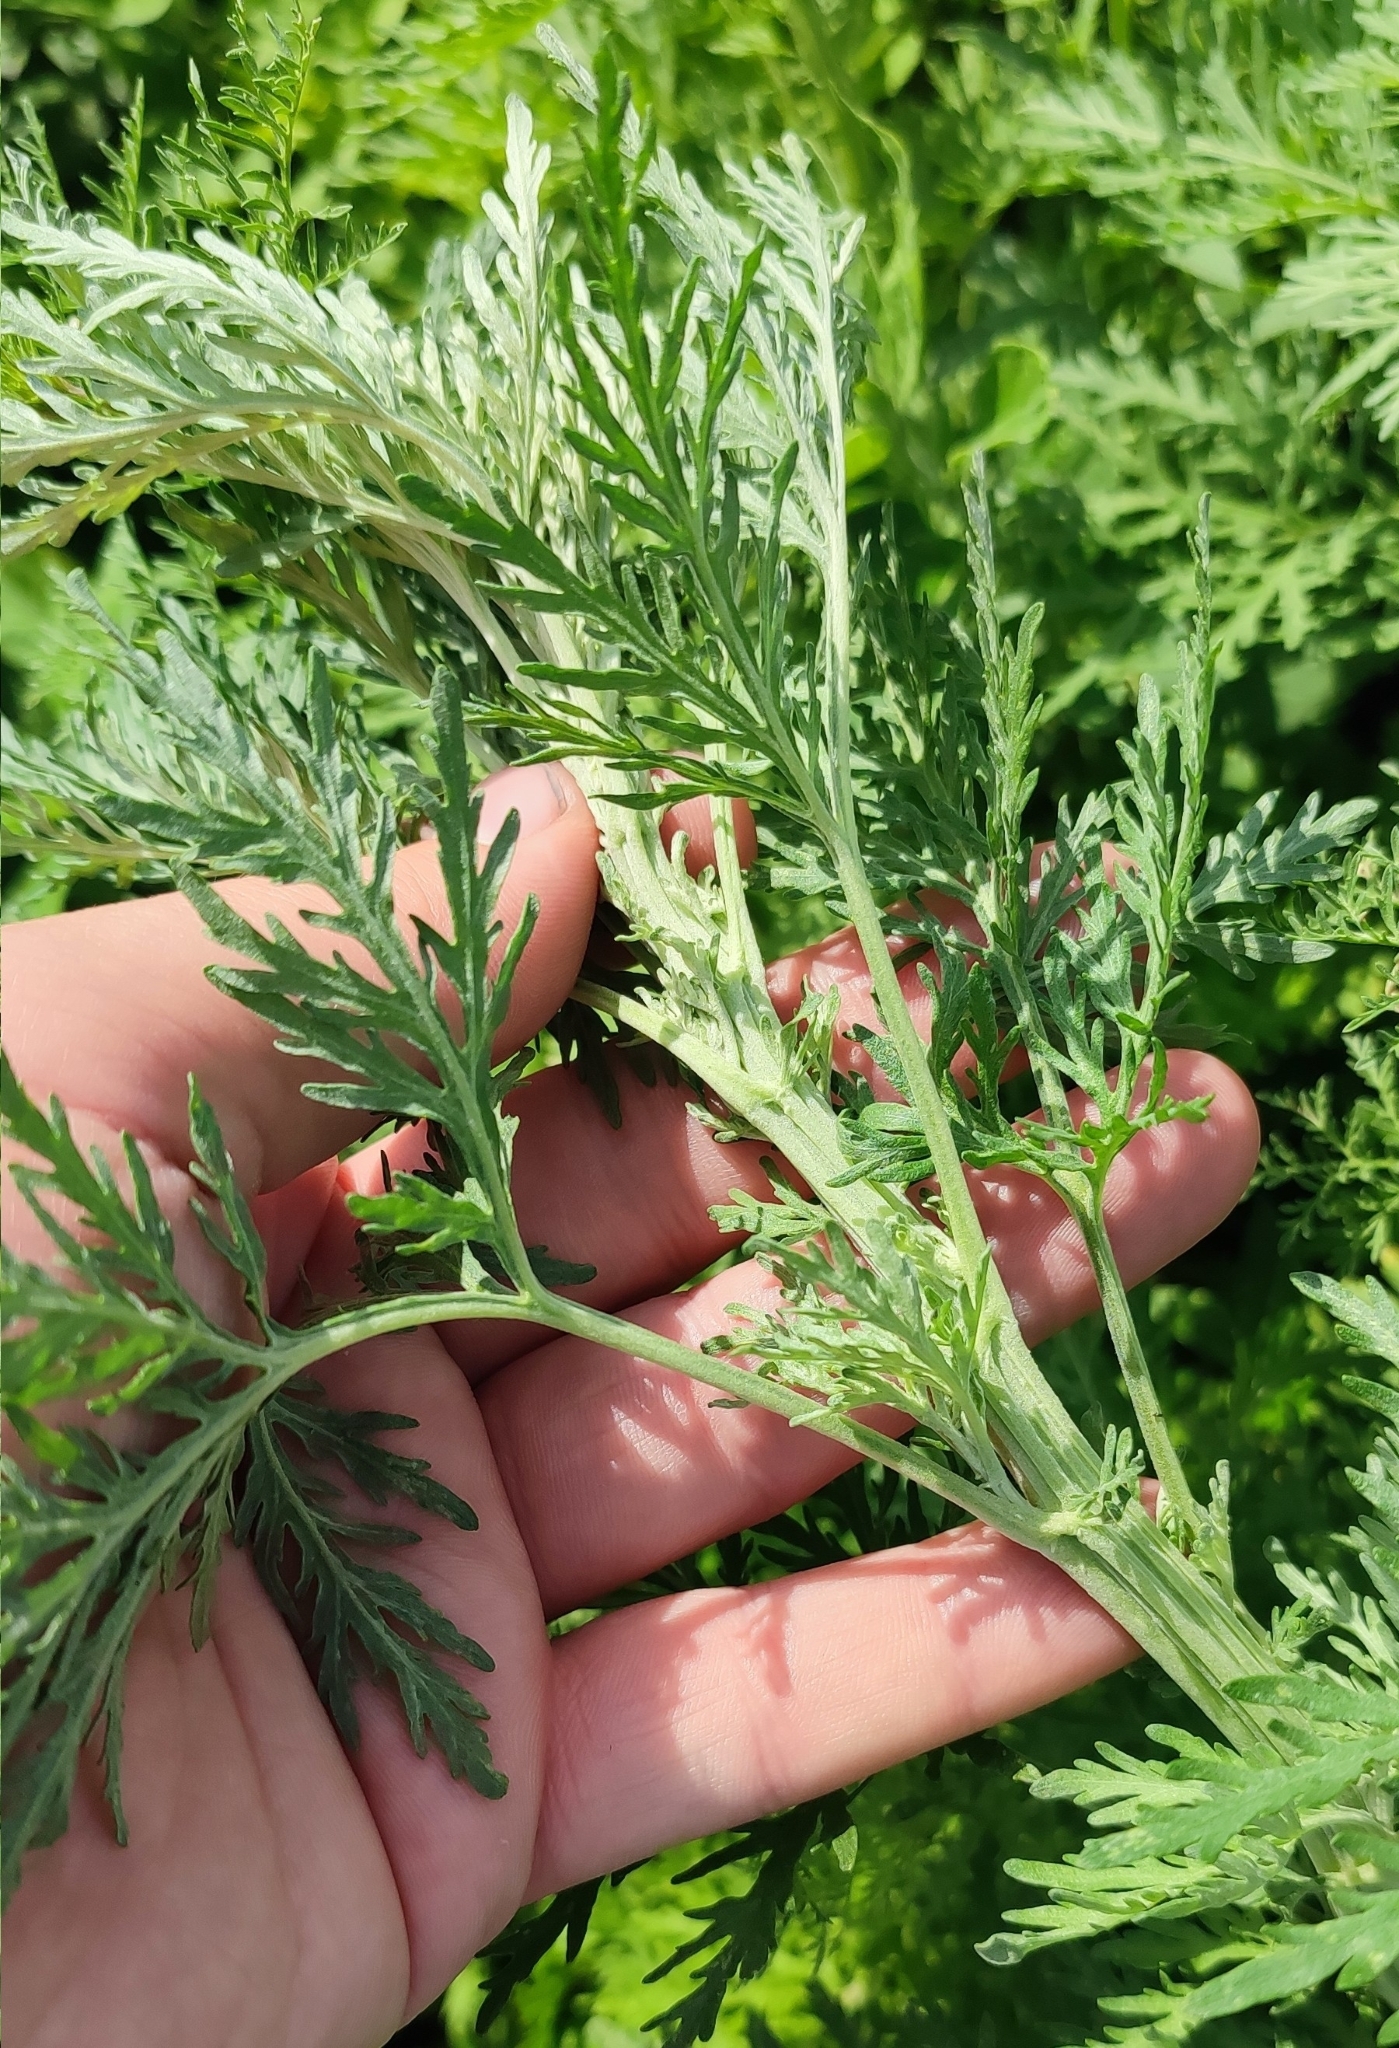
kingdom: Plantae
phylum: Tracheophyta
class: Magnoliopsida
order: Asterales
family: Asteraceae
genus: Artemisia
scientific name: Artemisia sieversiana
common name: Sieversian wormwood
